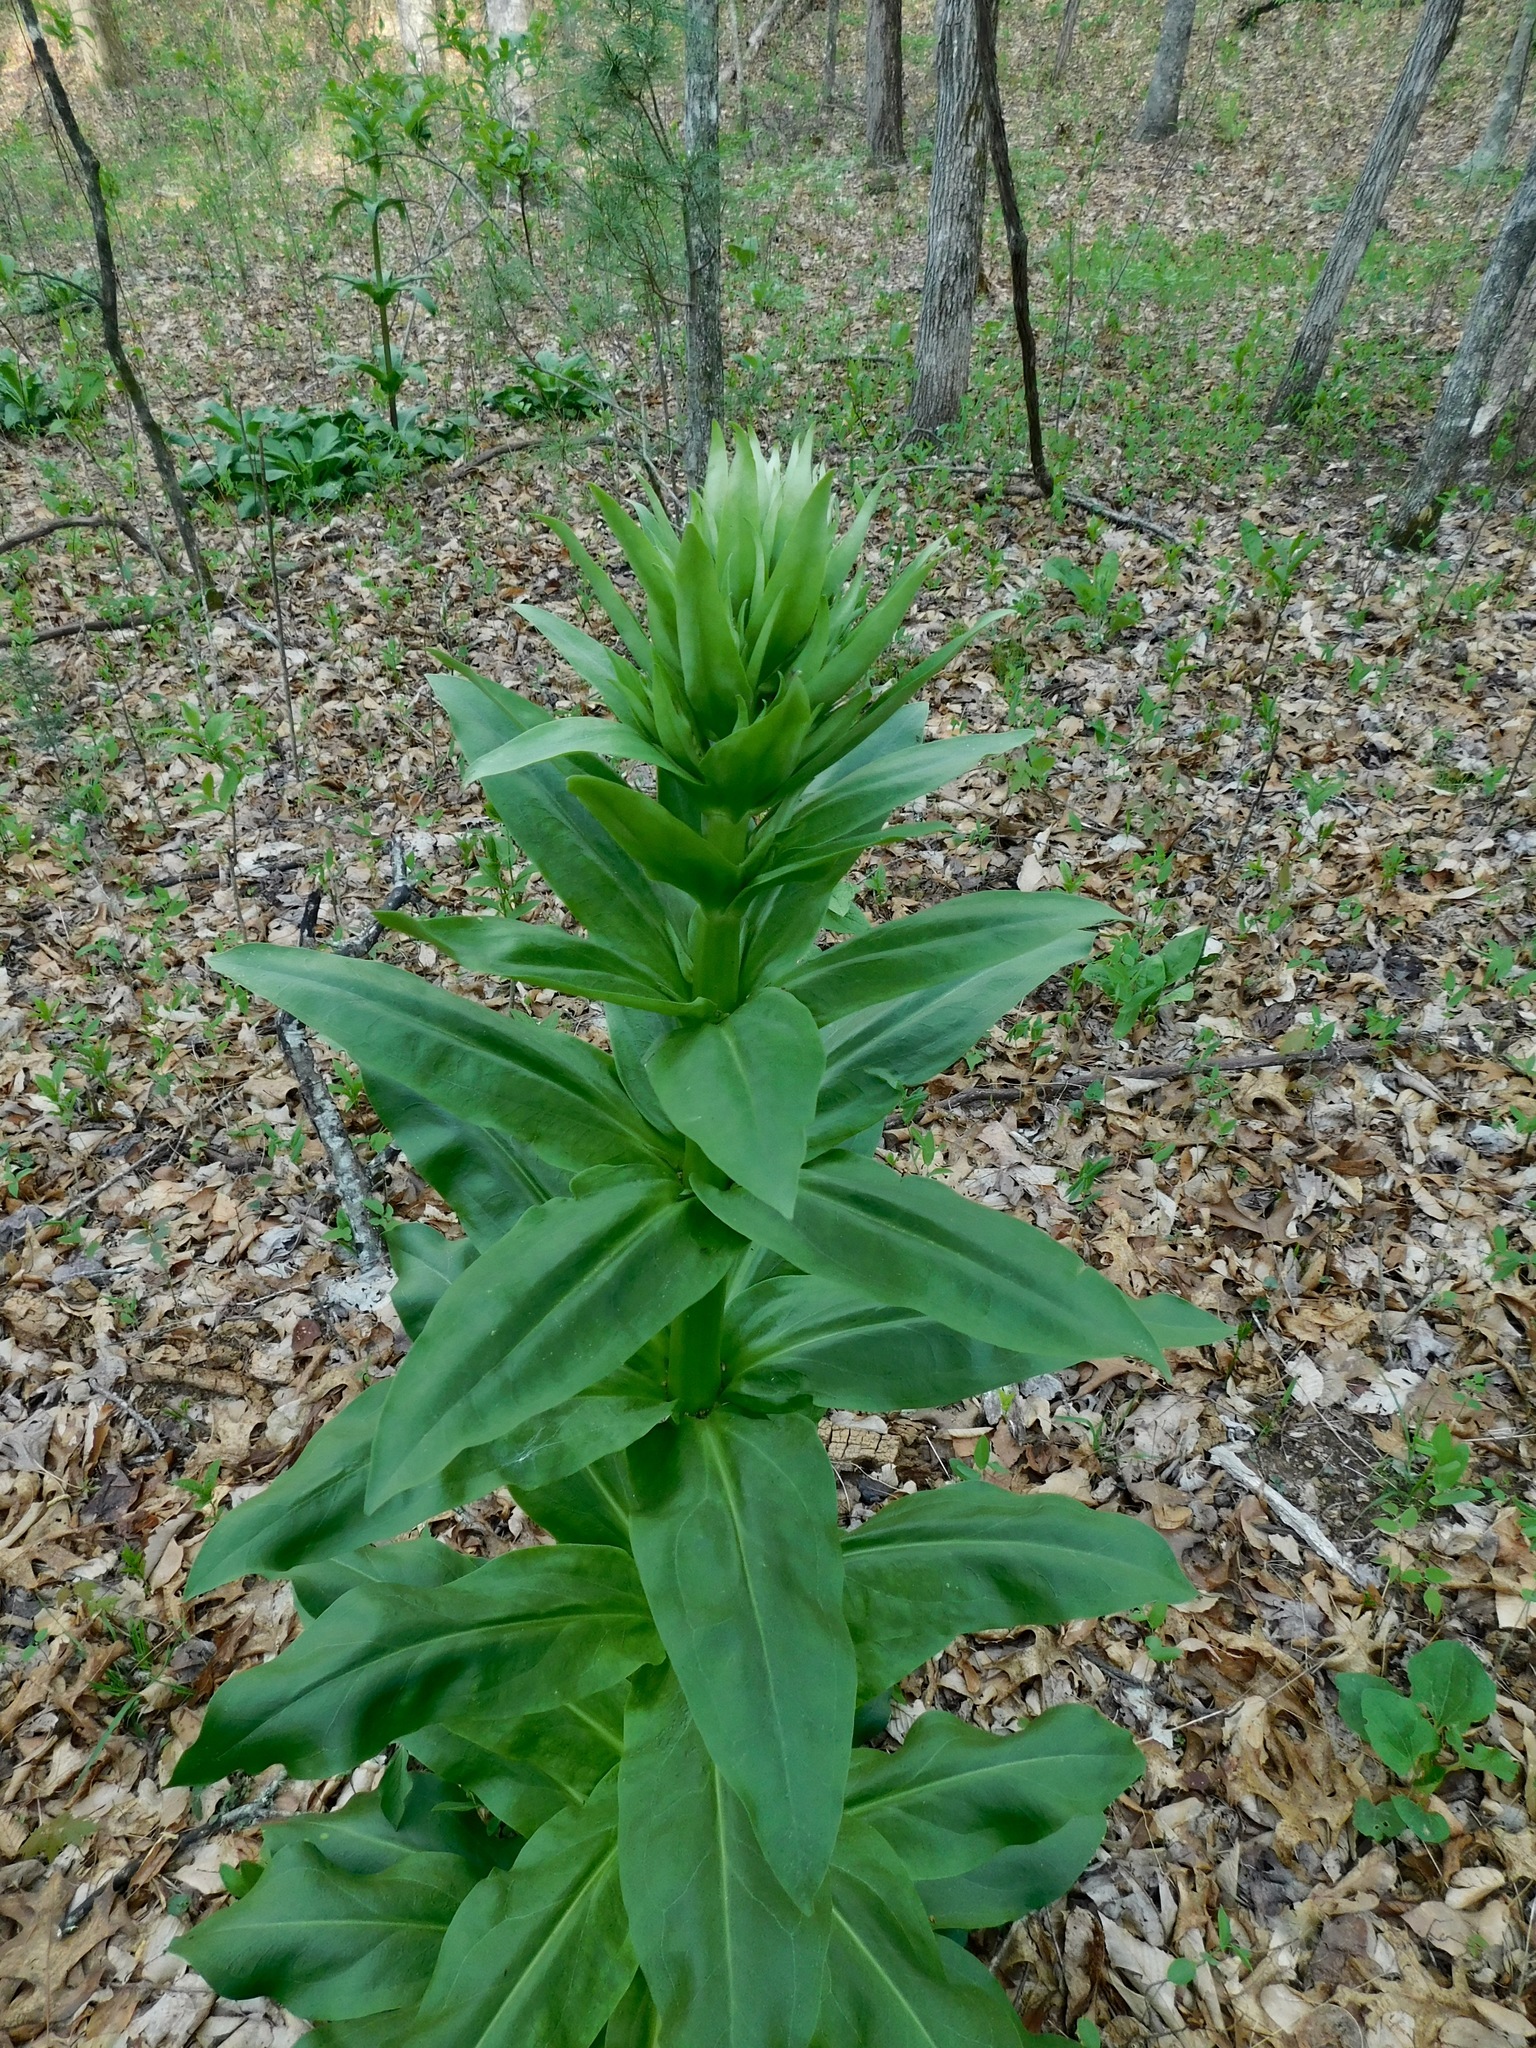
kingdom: Plantae
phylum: Tracheophyta
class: Magnoliopsida
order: Gentianales
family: Gentianaceae
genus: Frasera
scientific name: Frasera caroliniensis
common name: American columbo
